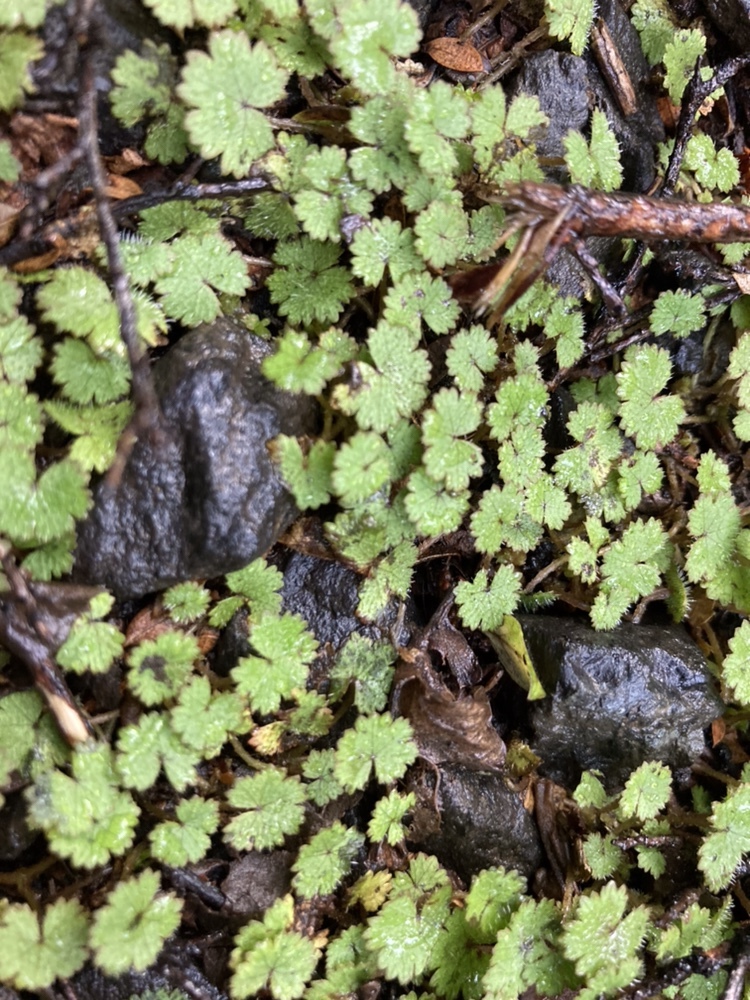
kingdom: Plantae
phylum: Tracheophyta
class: Magnoliopsida
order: Apiales
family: Araliaceae
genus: Hydrocotyle
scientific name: Hydrocotyle moschata
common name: Hairy pennywort
